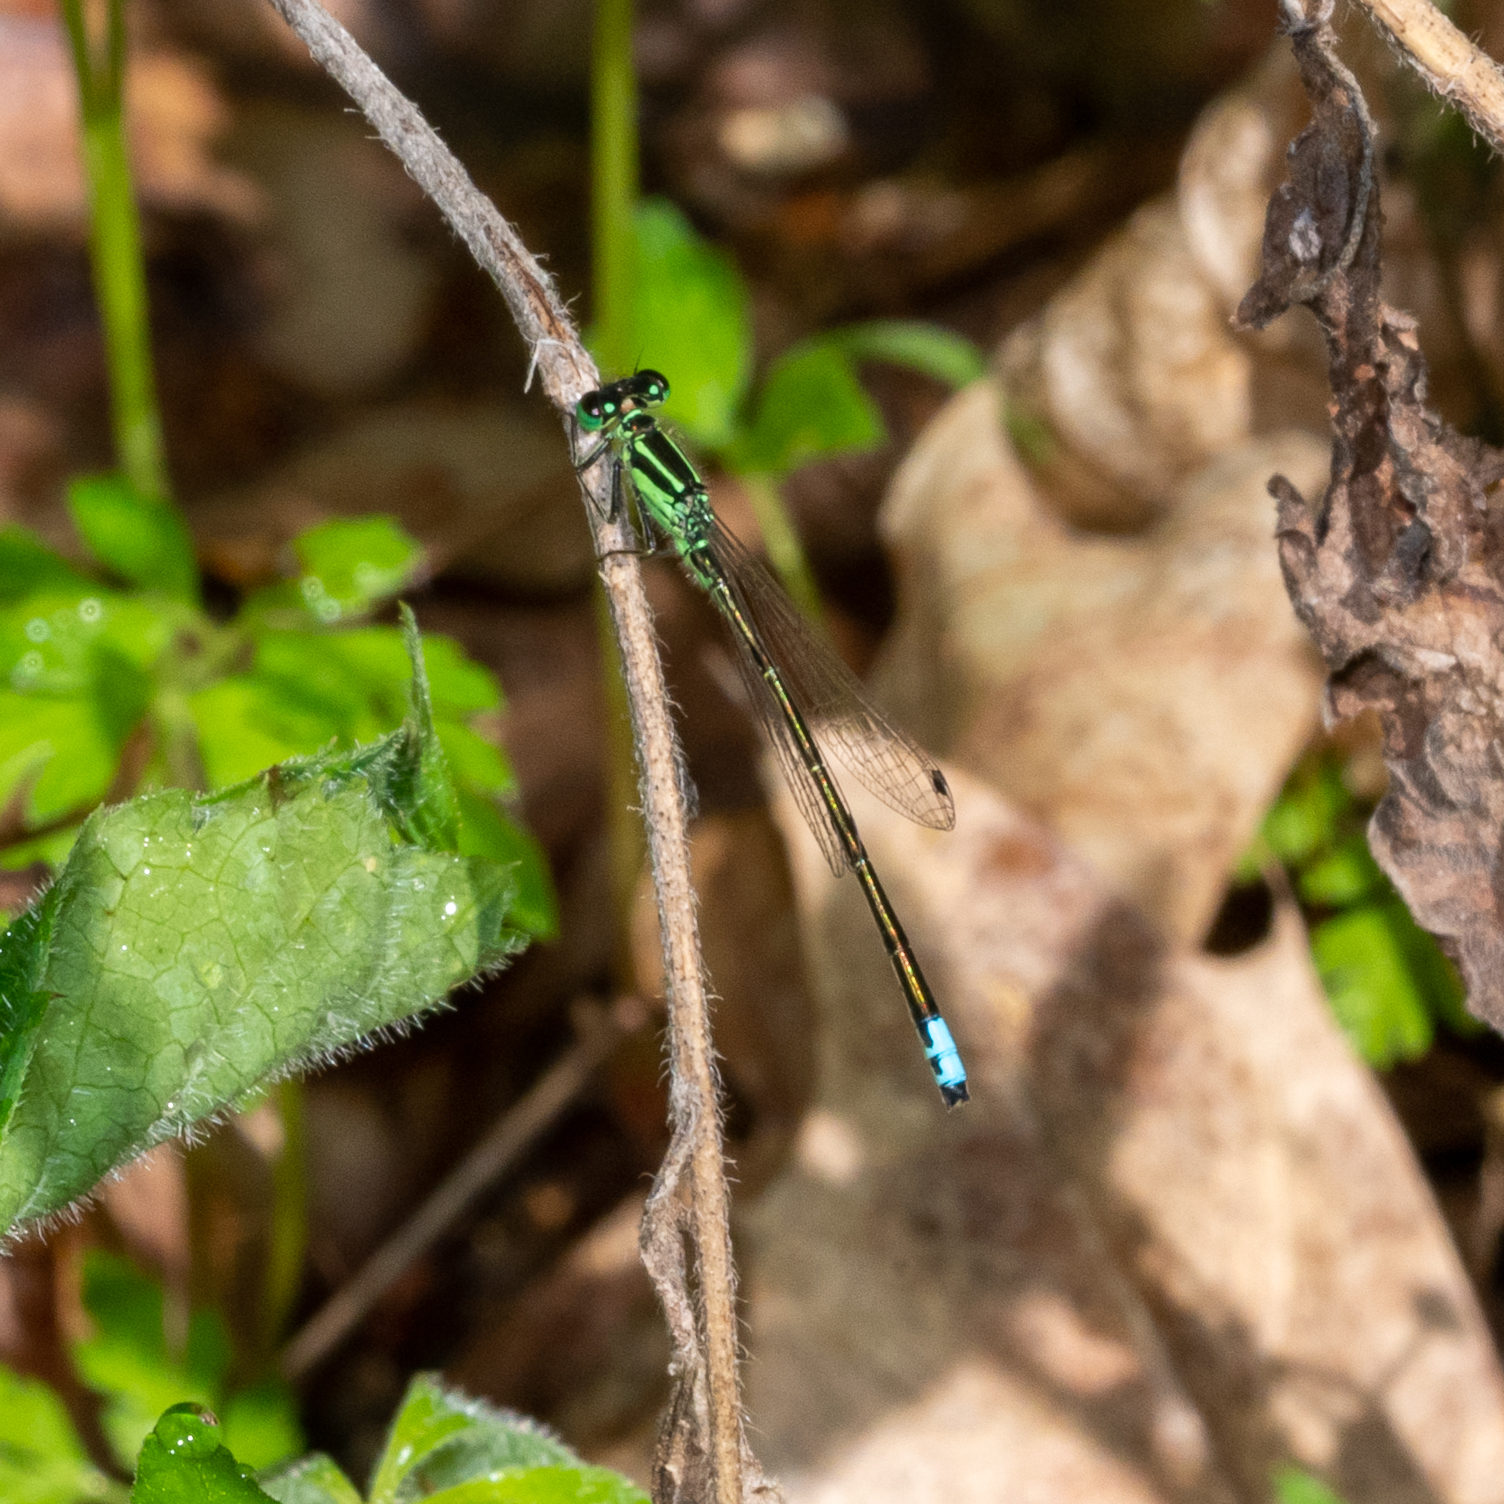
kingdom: Animalia
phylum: Arthropoda
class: Insecta
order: Odonata
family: Coenagrionidae
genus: Ischnura
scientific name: Ischnura verticalis
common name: Eastern forktail
